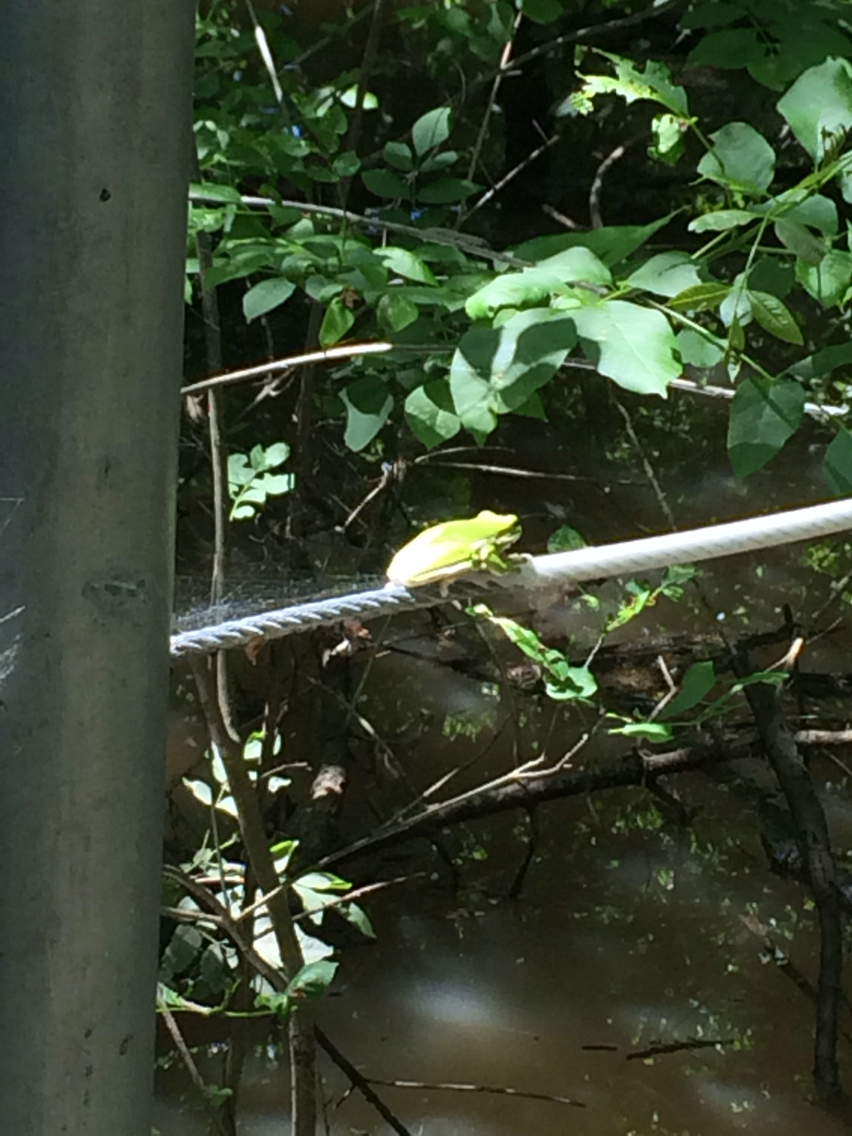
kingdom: Animalia
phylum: Chordata
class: Amphibia
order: Anura
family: Hylidae
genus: Dryophytes
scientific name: Dryophytes cinereus
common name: Green treefrog
